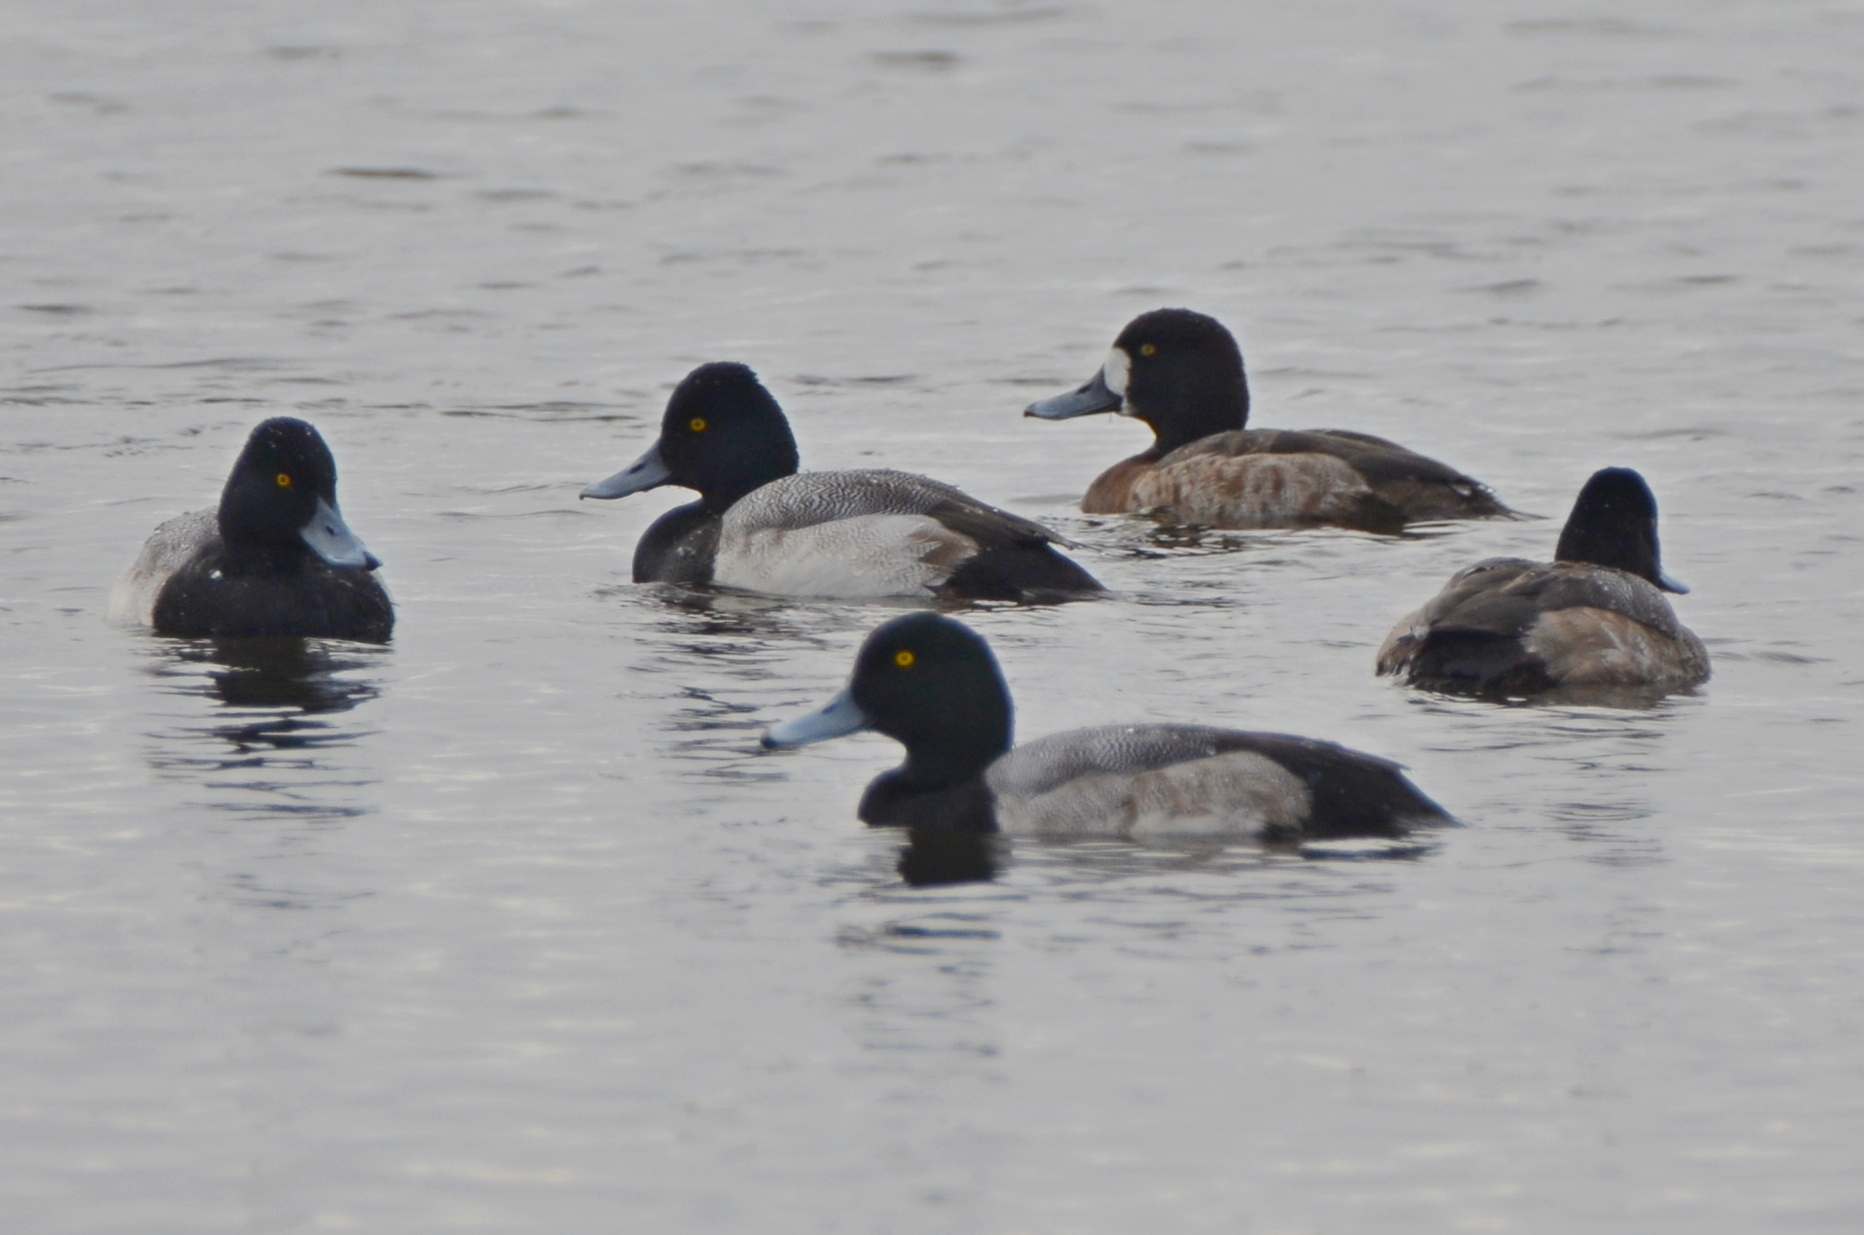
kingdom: Animalia
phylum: Chordata
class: Aves
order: Anseriformes
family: Anatidae
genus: Aythya
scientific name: Aythya marila
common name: Greater scaup
